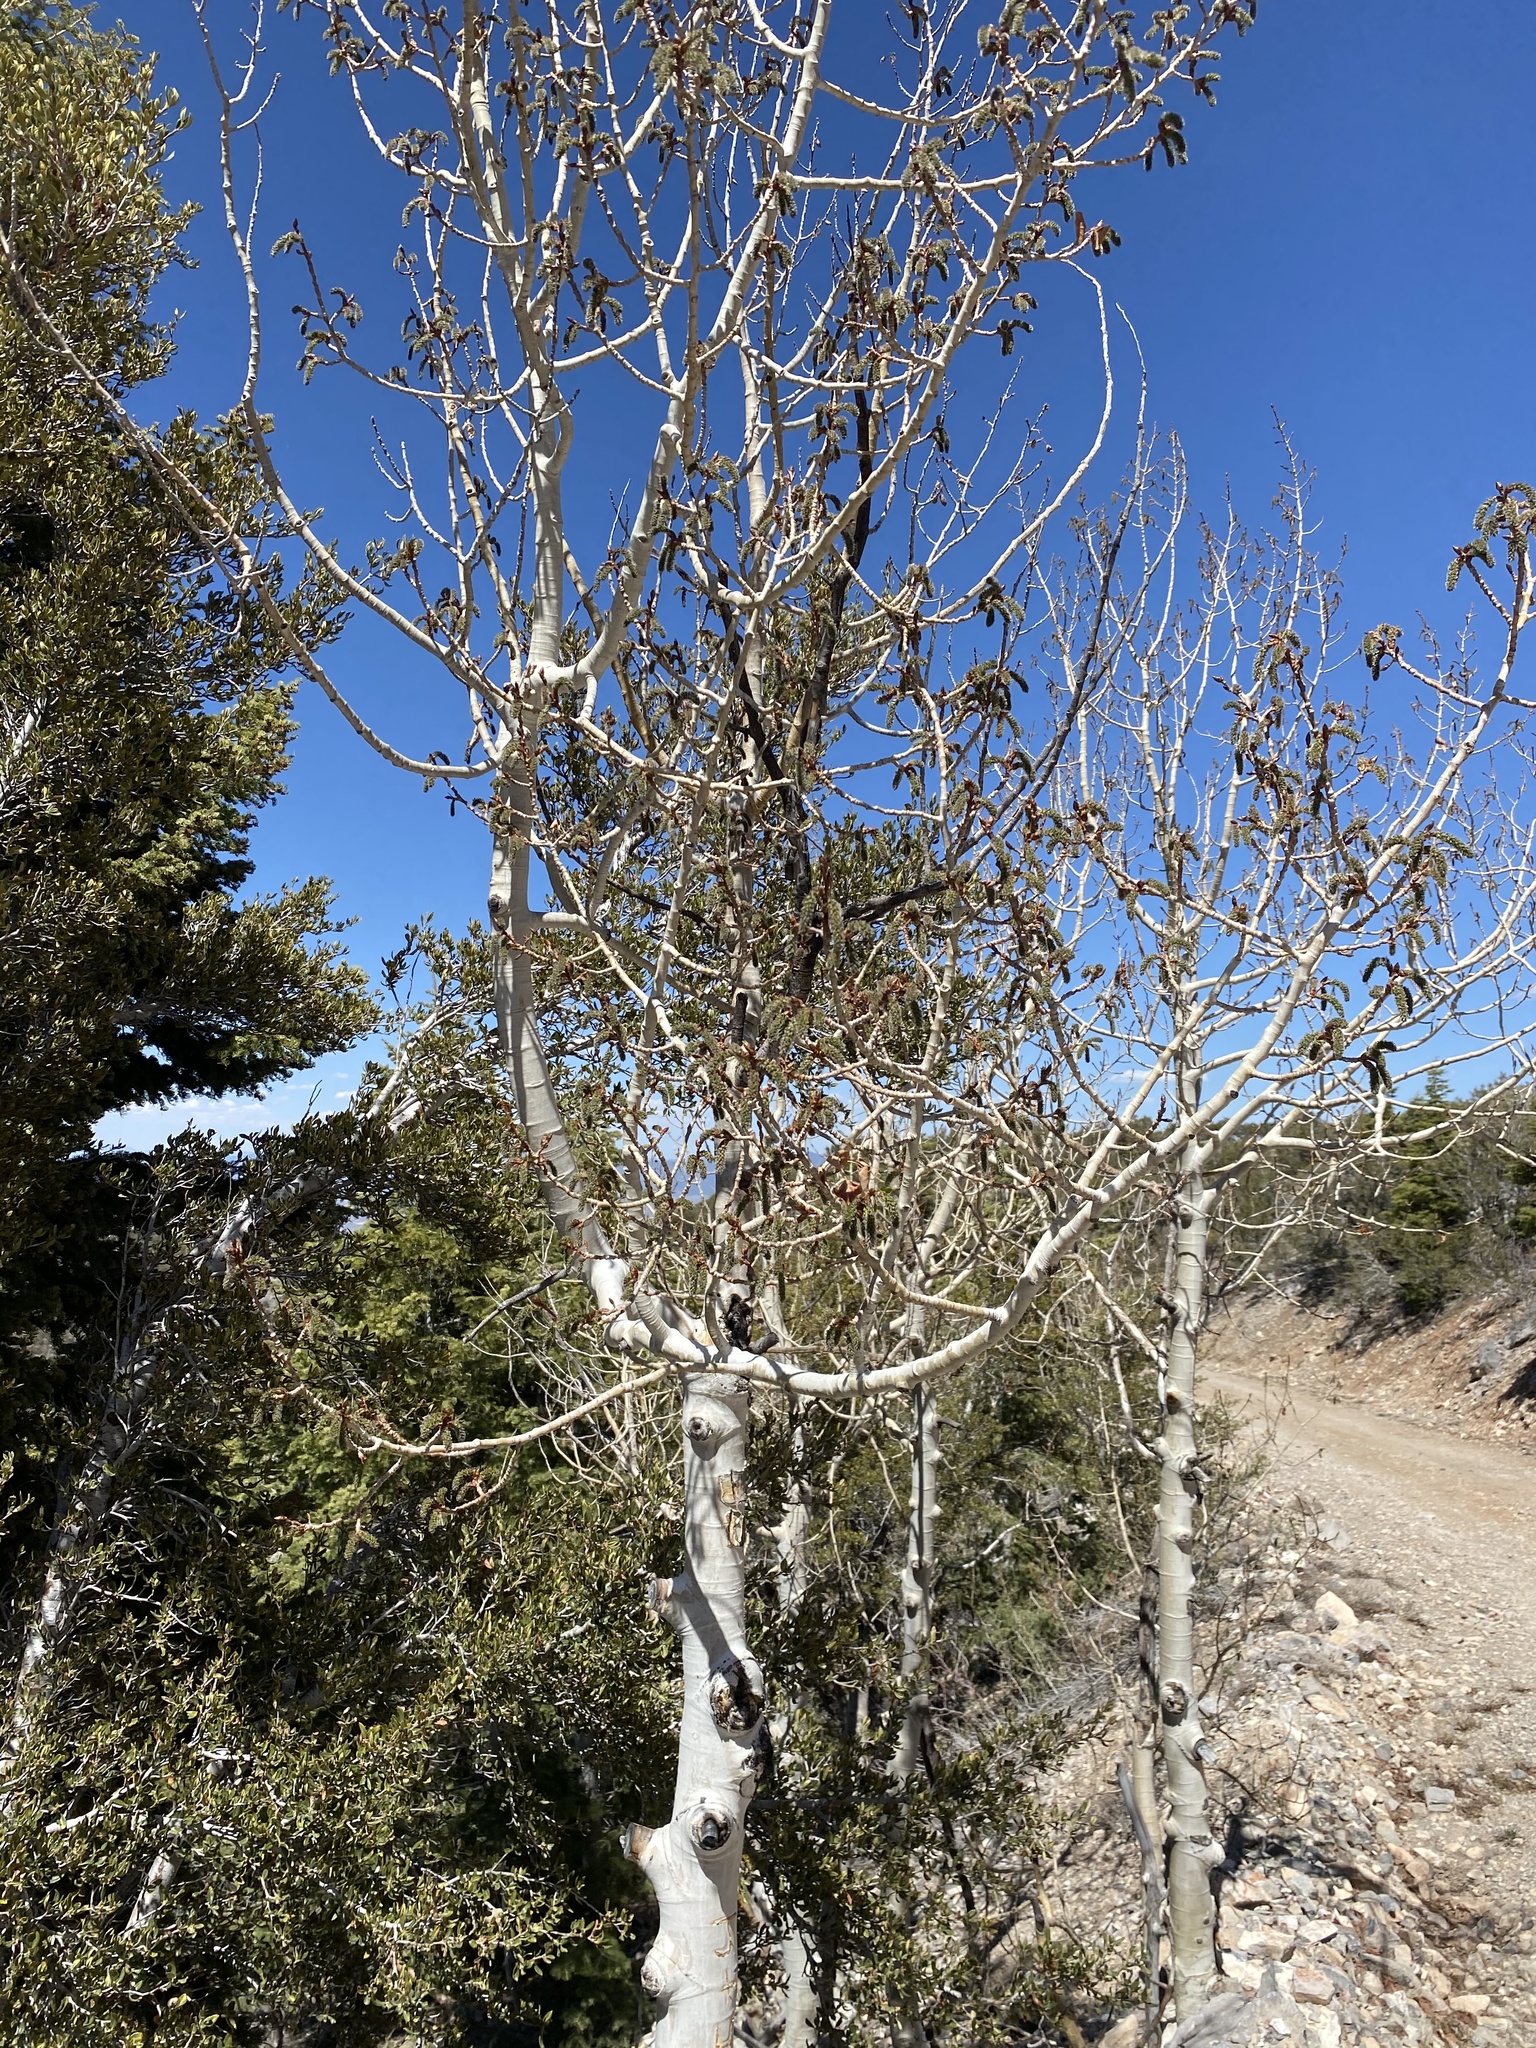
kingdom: Plantae
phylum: Tracheophyta
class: Magnoliopsida
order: Malpighiales
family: Salicaceae
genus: Populus
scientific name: Populus tremuloides
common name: Quaking aspen
